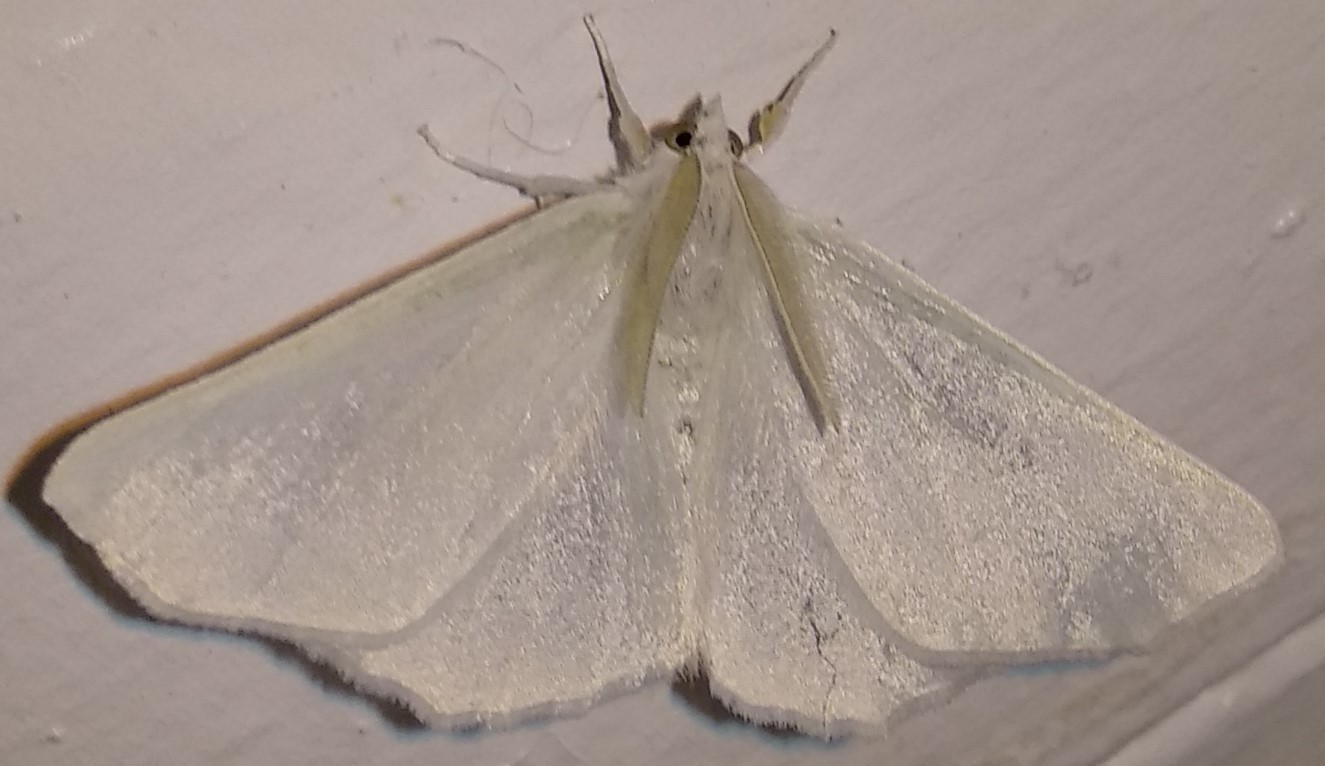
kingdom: Animalia
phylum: Arthropoda
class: Insecta
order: Lepidoptera
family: Geometridae
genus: Ennomos
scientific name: Ennomos subsignaria
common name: Elm spanworm
